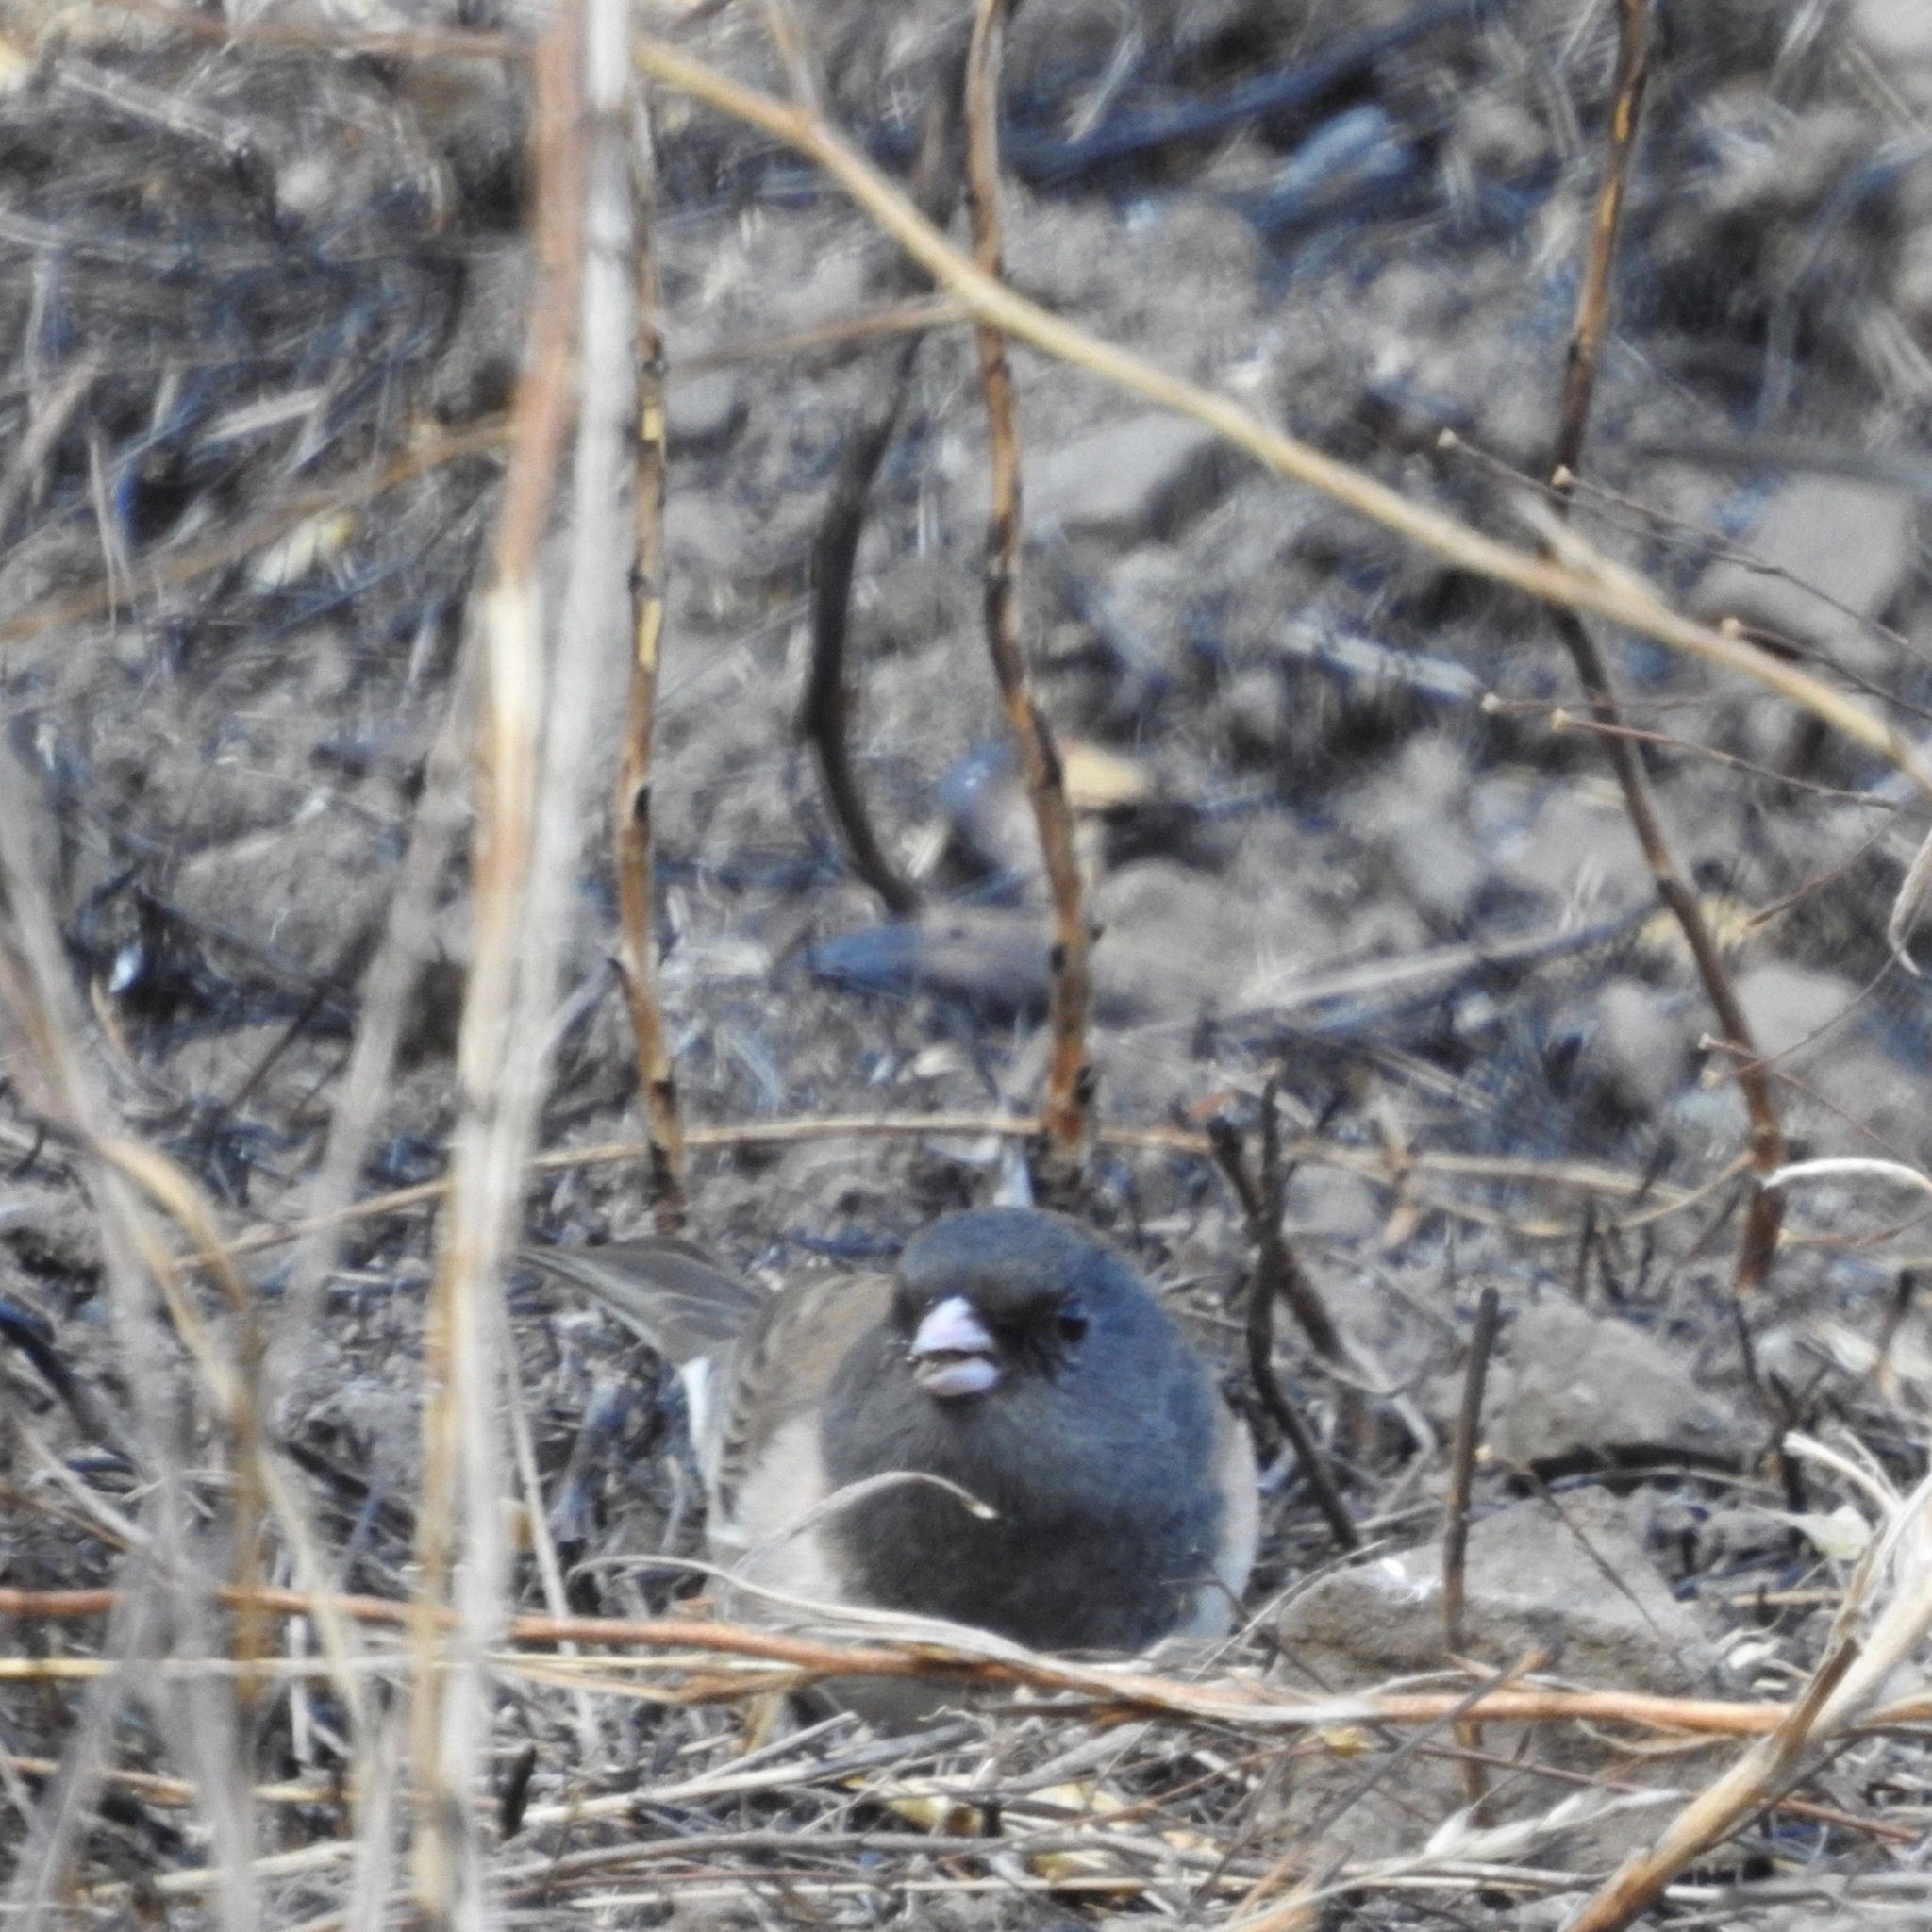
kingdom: Animalia
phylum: Chordata
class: Aves
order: Passeriformes
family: Passerellidae
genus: Junco
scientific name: Junco hyemalis
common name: Dark-eyed junco
